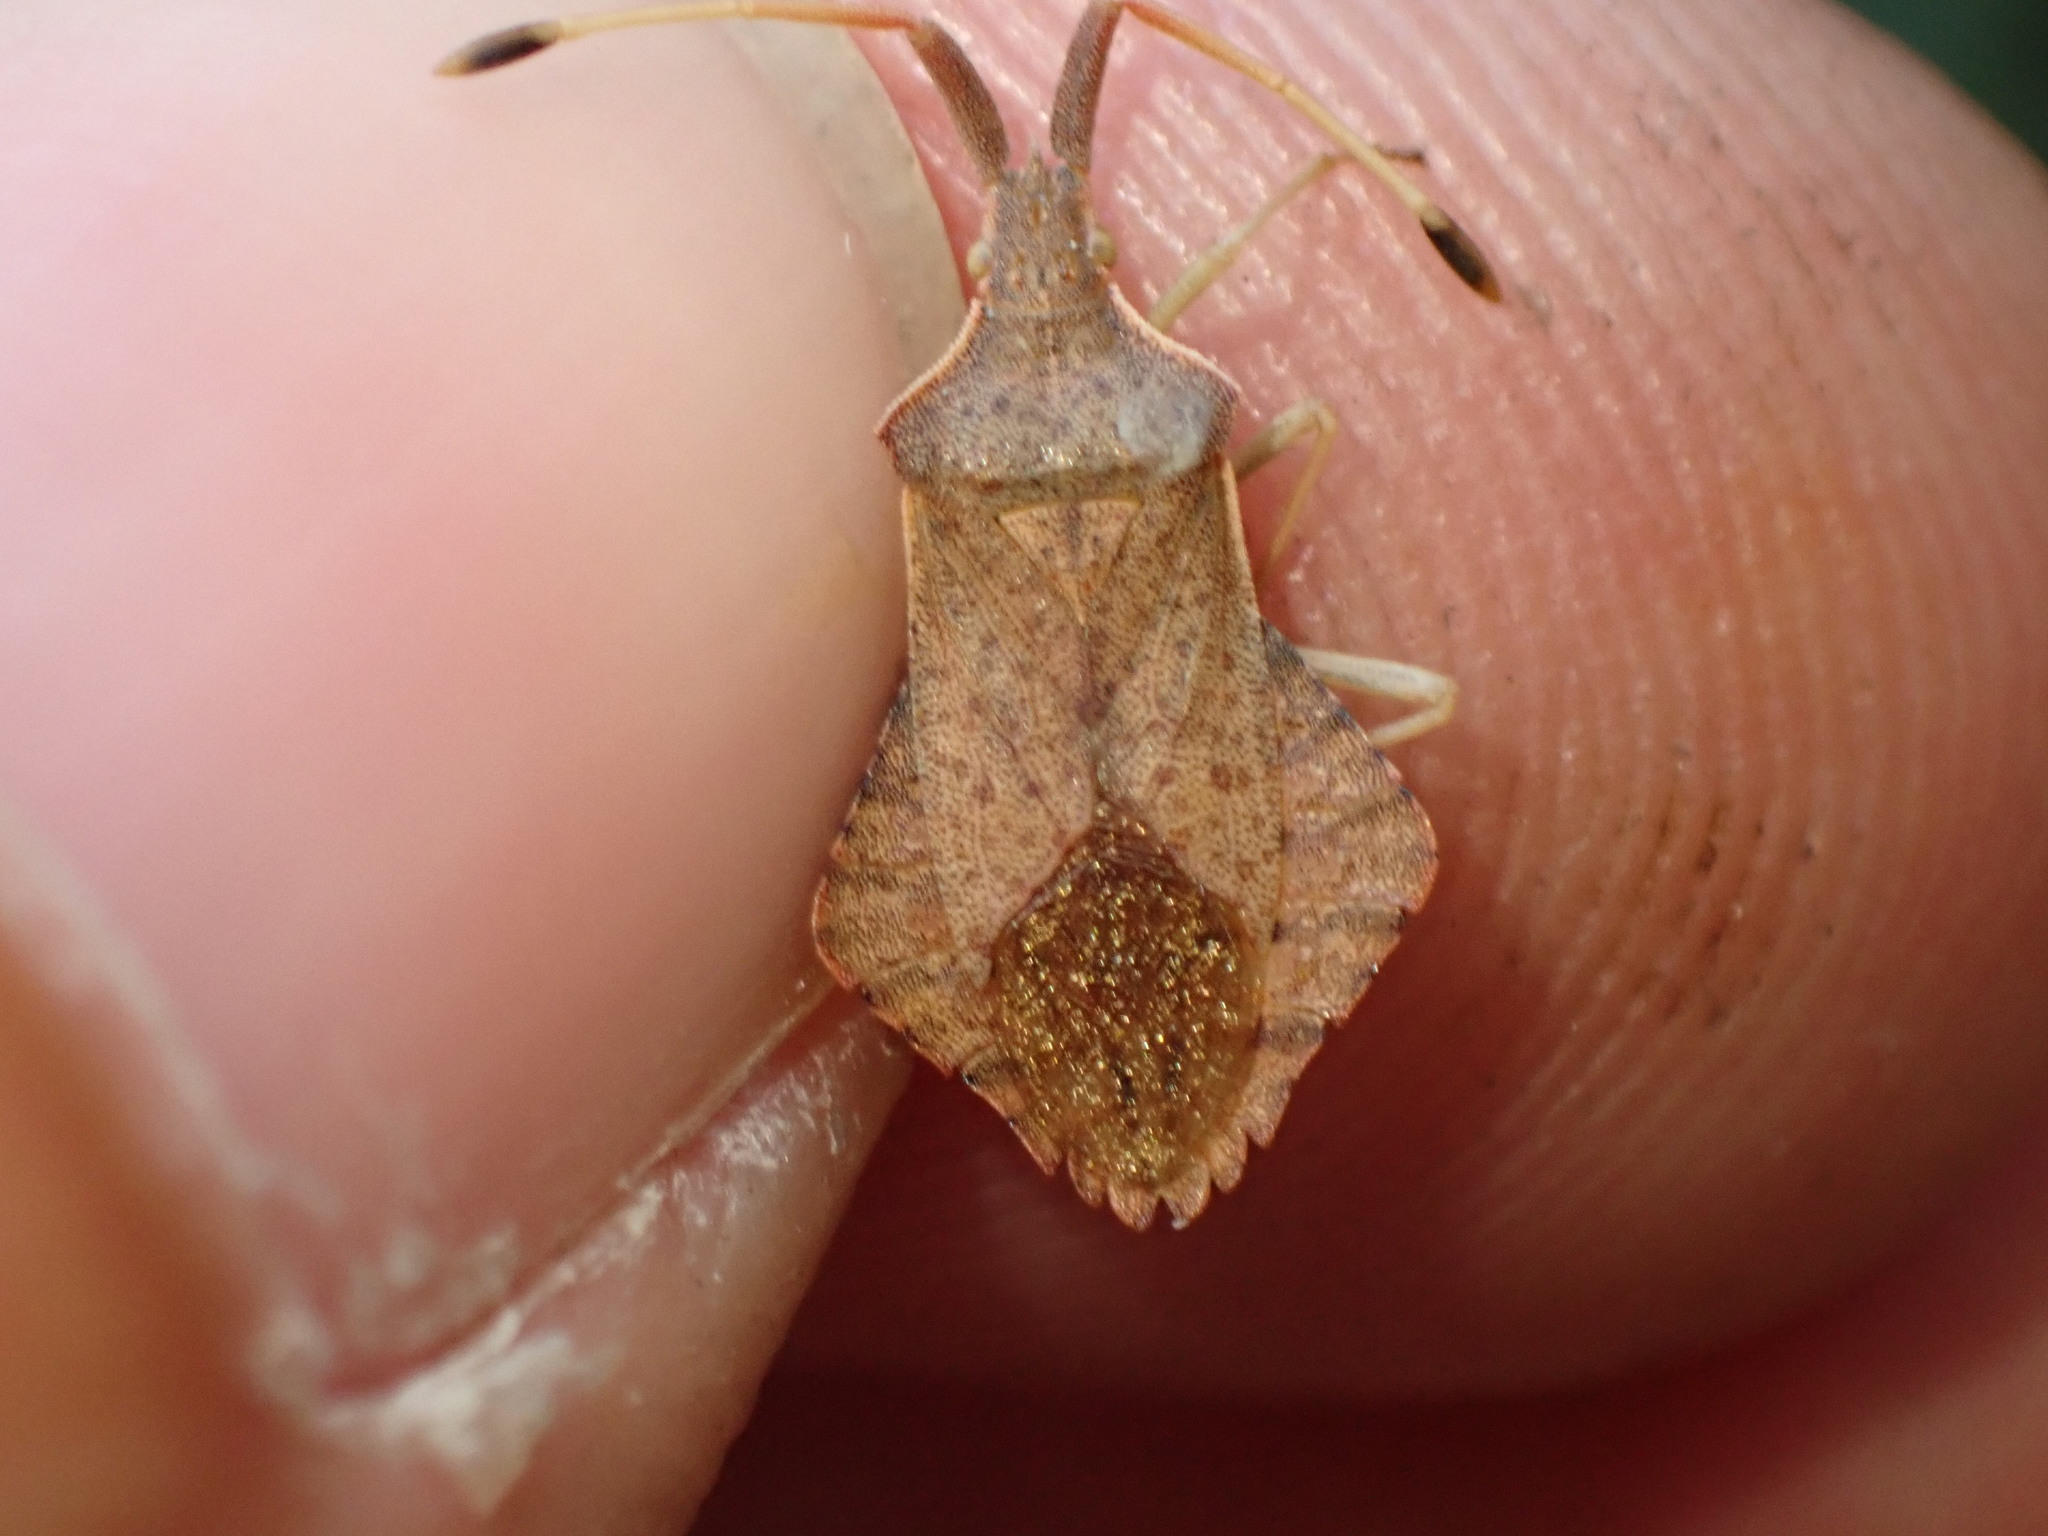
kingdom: Animalia
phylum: Arthropoda
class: Insecta
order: Hemiptera
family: Coreidae
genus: Syromastus
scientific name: Syromastus rhombeus
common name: Rhombic leatherbug
